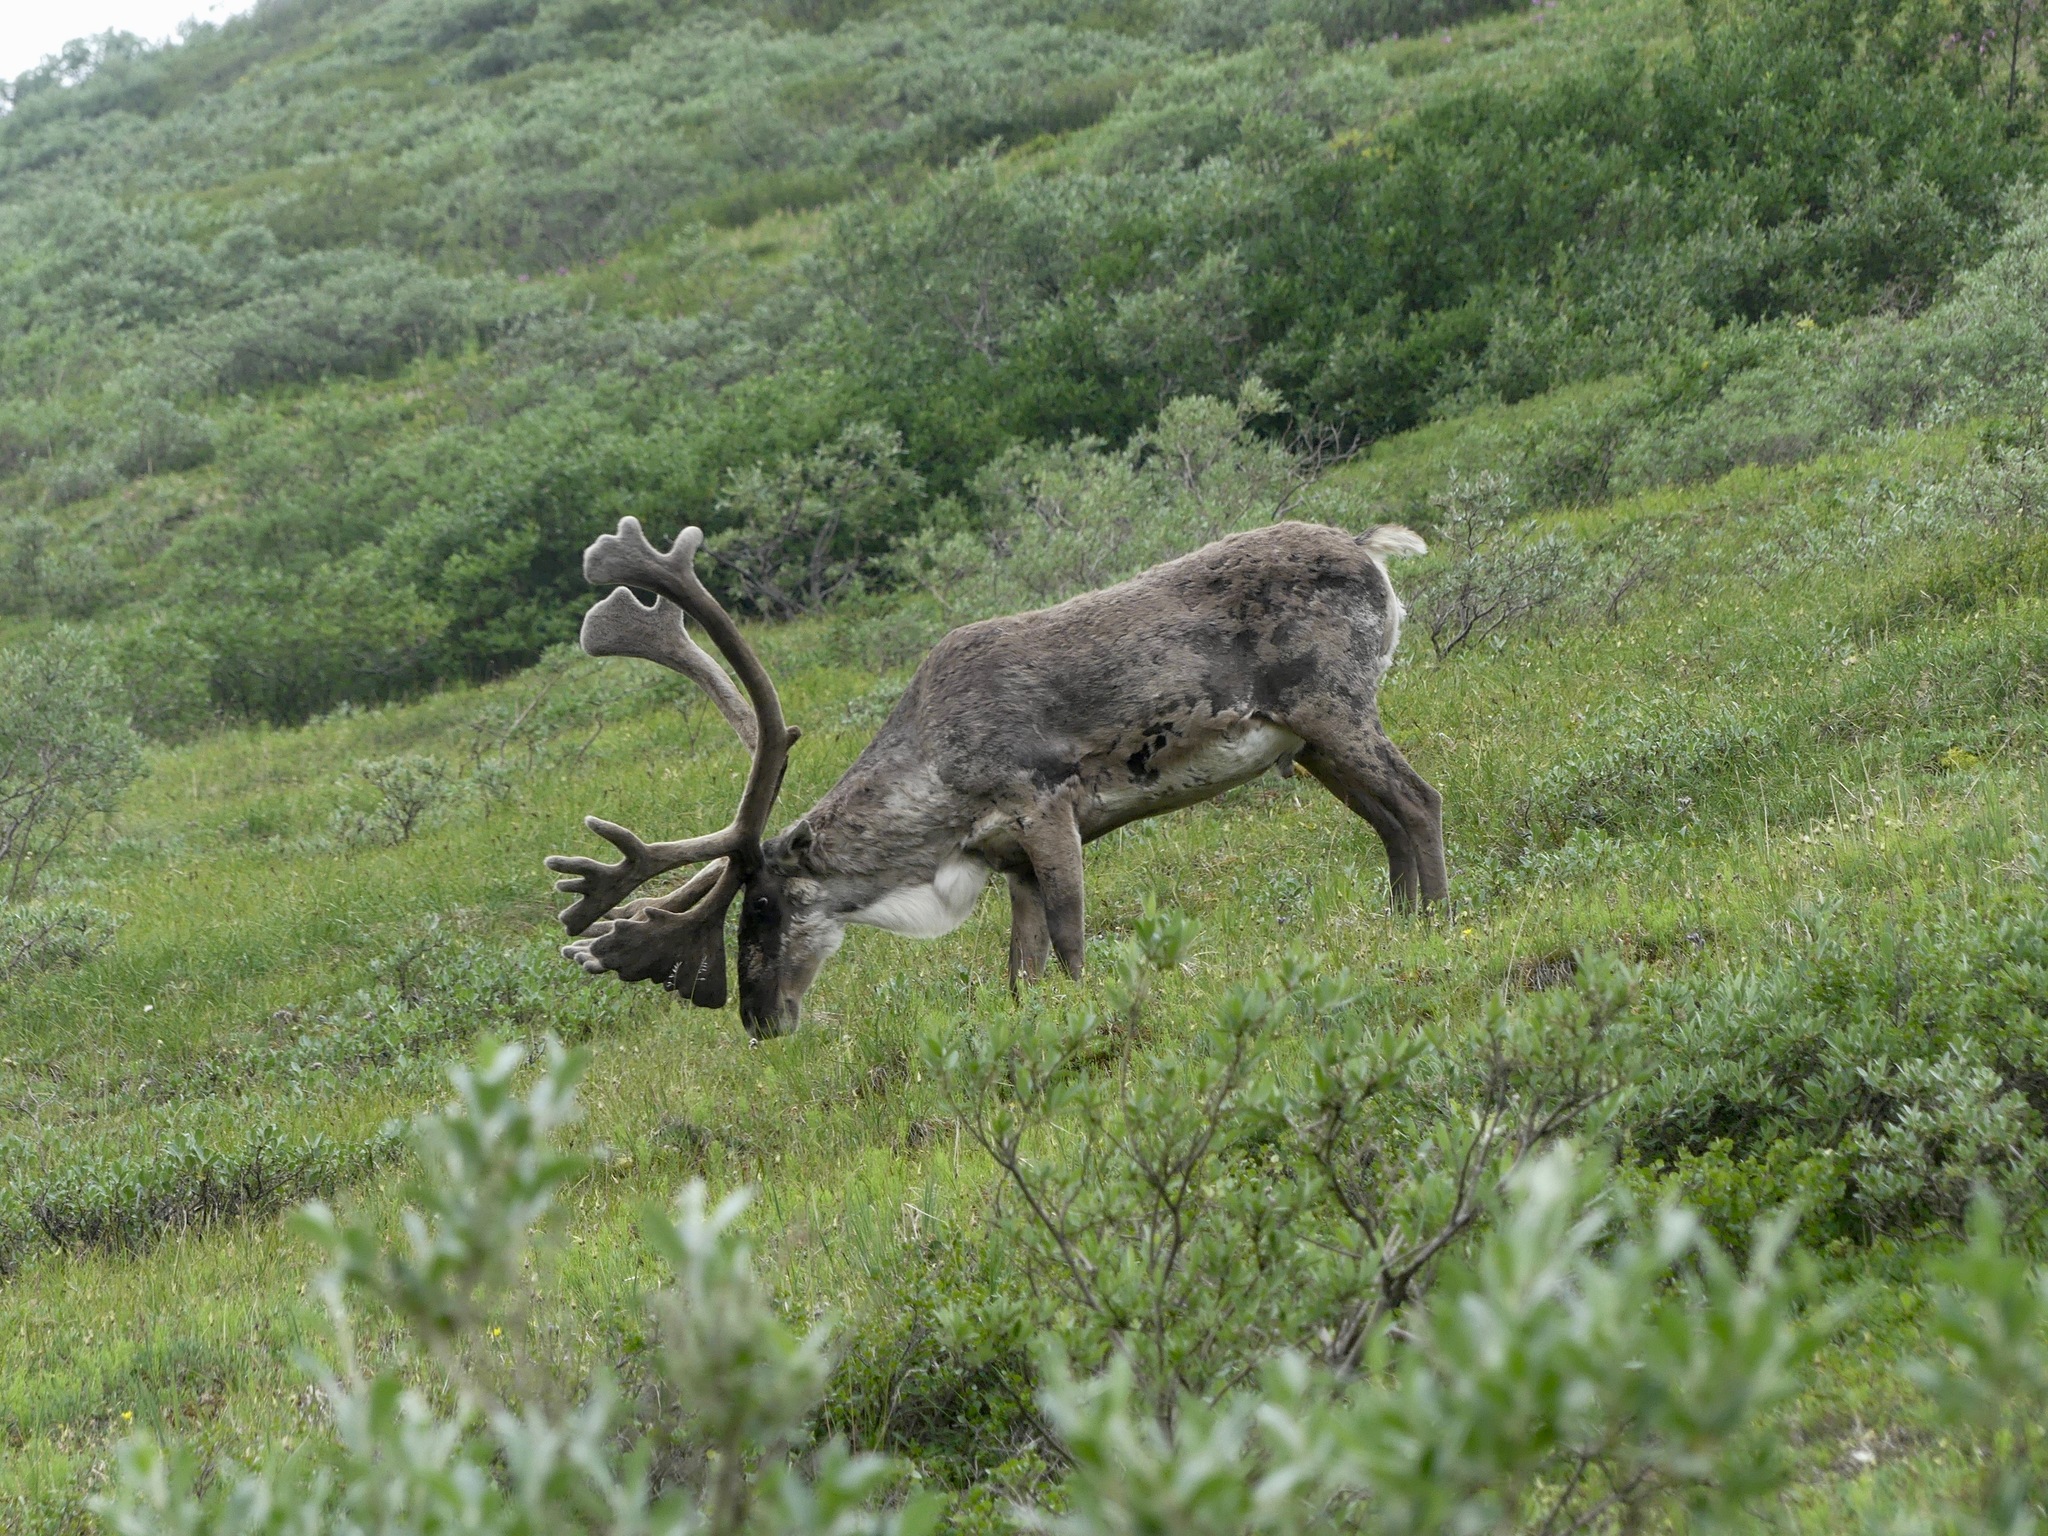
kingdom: Animalia
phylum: Chordata
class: Mammalia
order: Artiodactyla
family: Cervidae
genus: Rangifer
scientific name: Rangifer tarandus
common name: Reindeer
